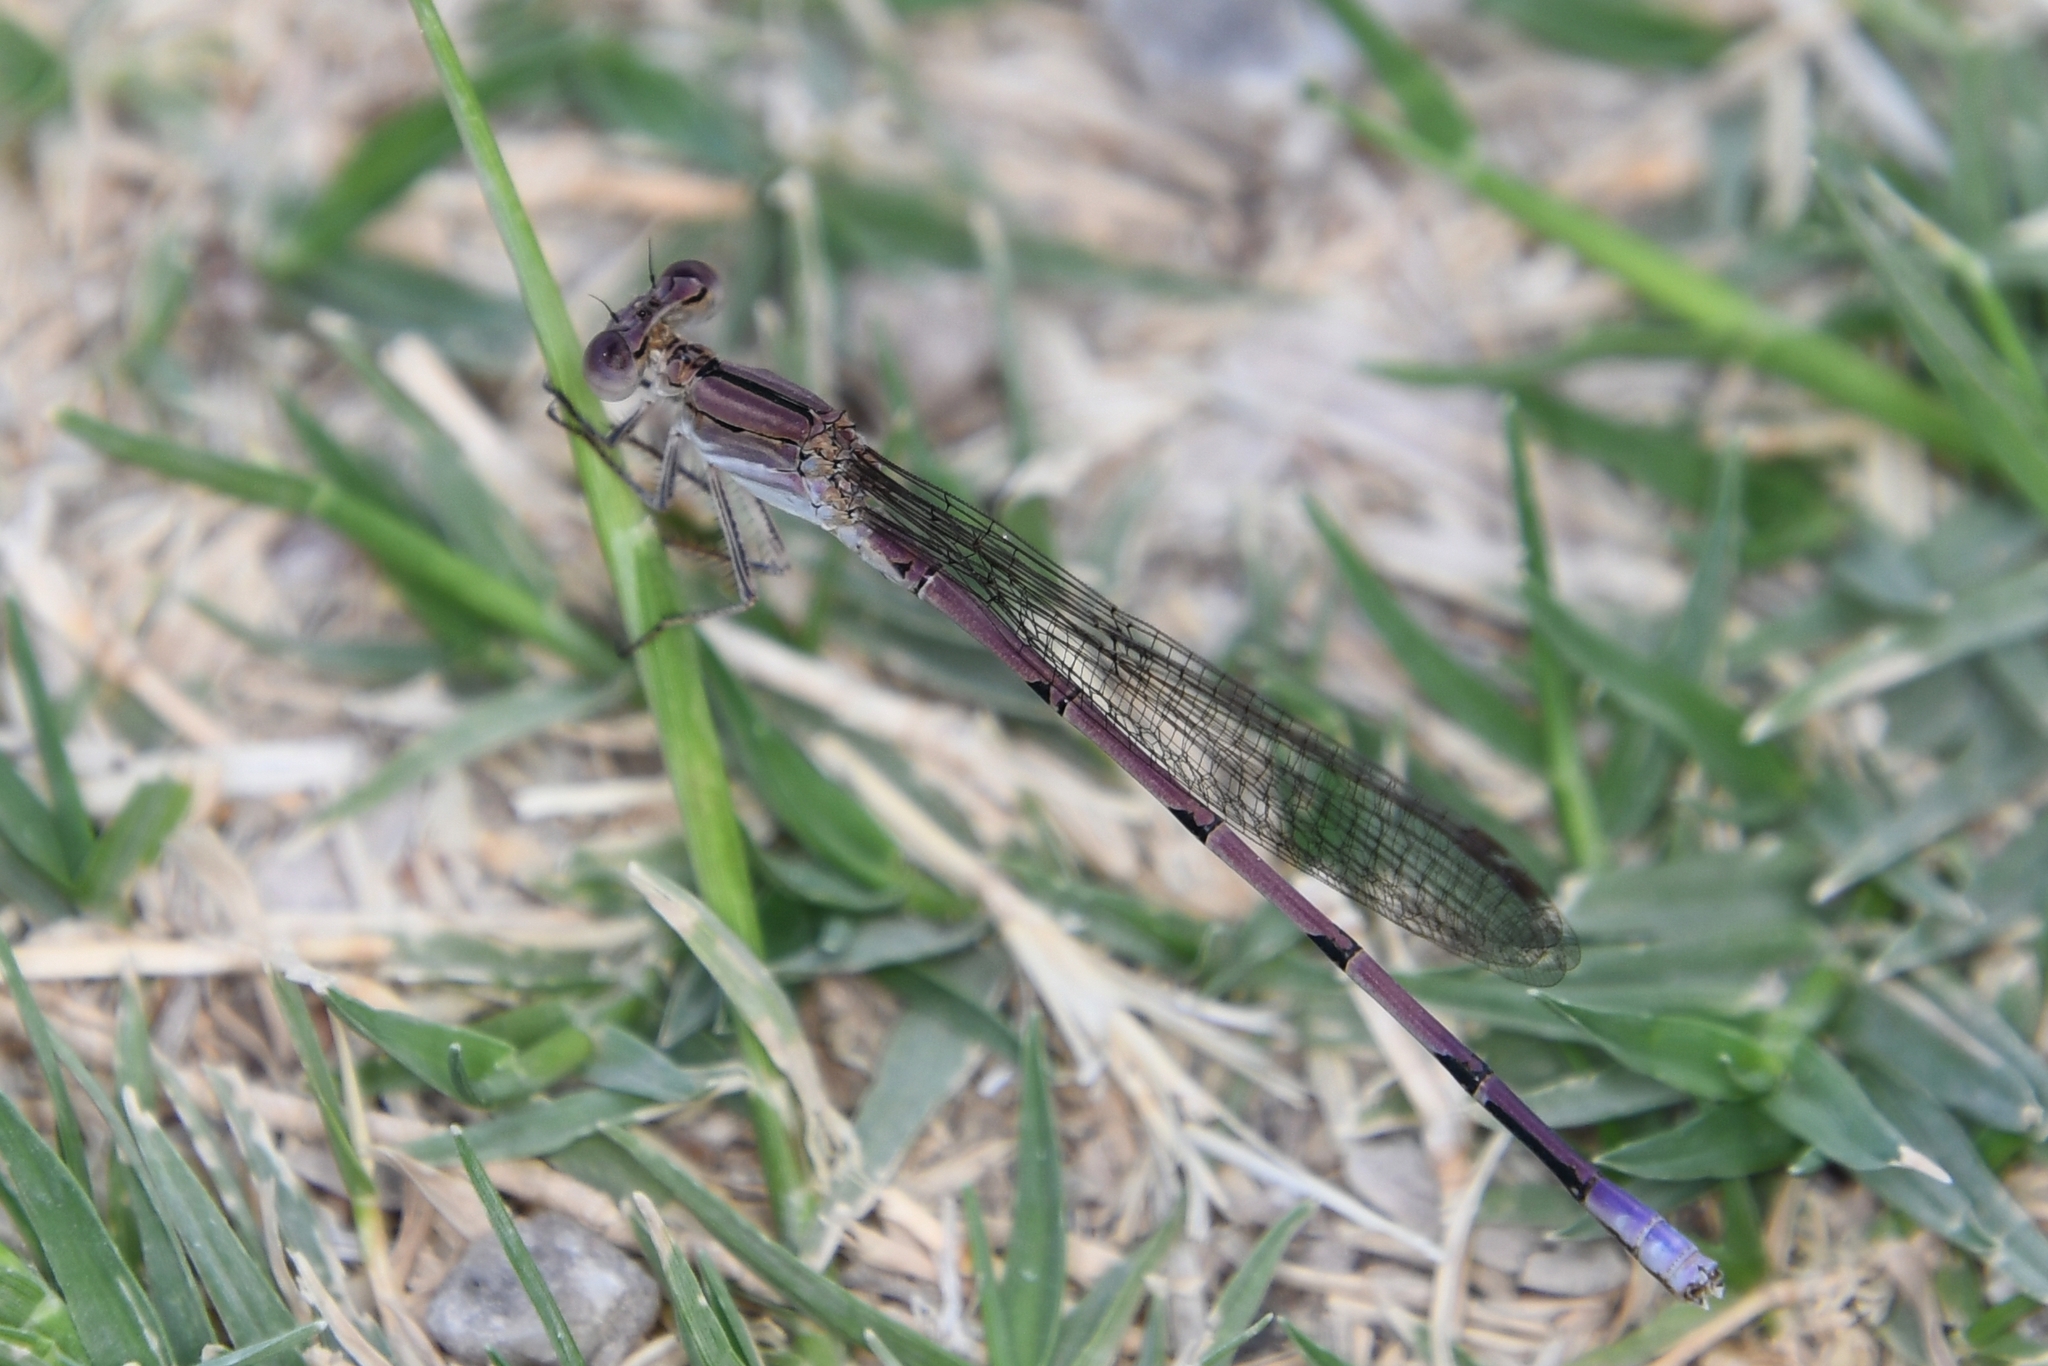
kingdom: Animalia
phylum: Arthropoda
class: Insecta
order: Odonata
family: Coenagrionidae
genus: Argia
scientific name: Argia pallens
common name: Amethyst dancer
